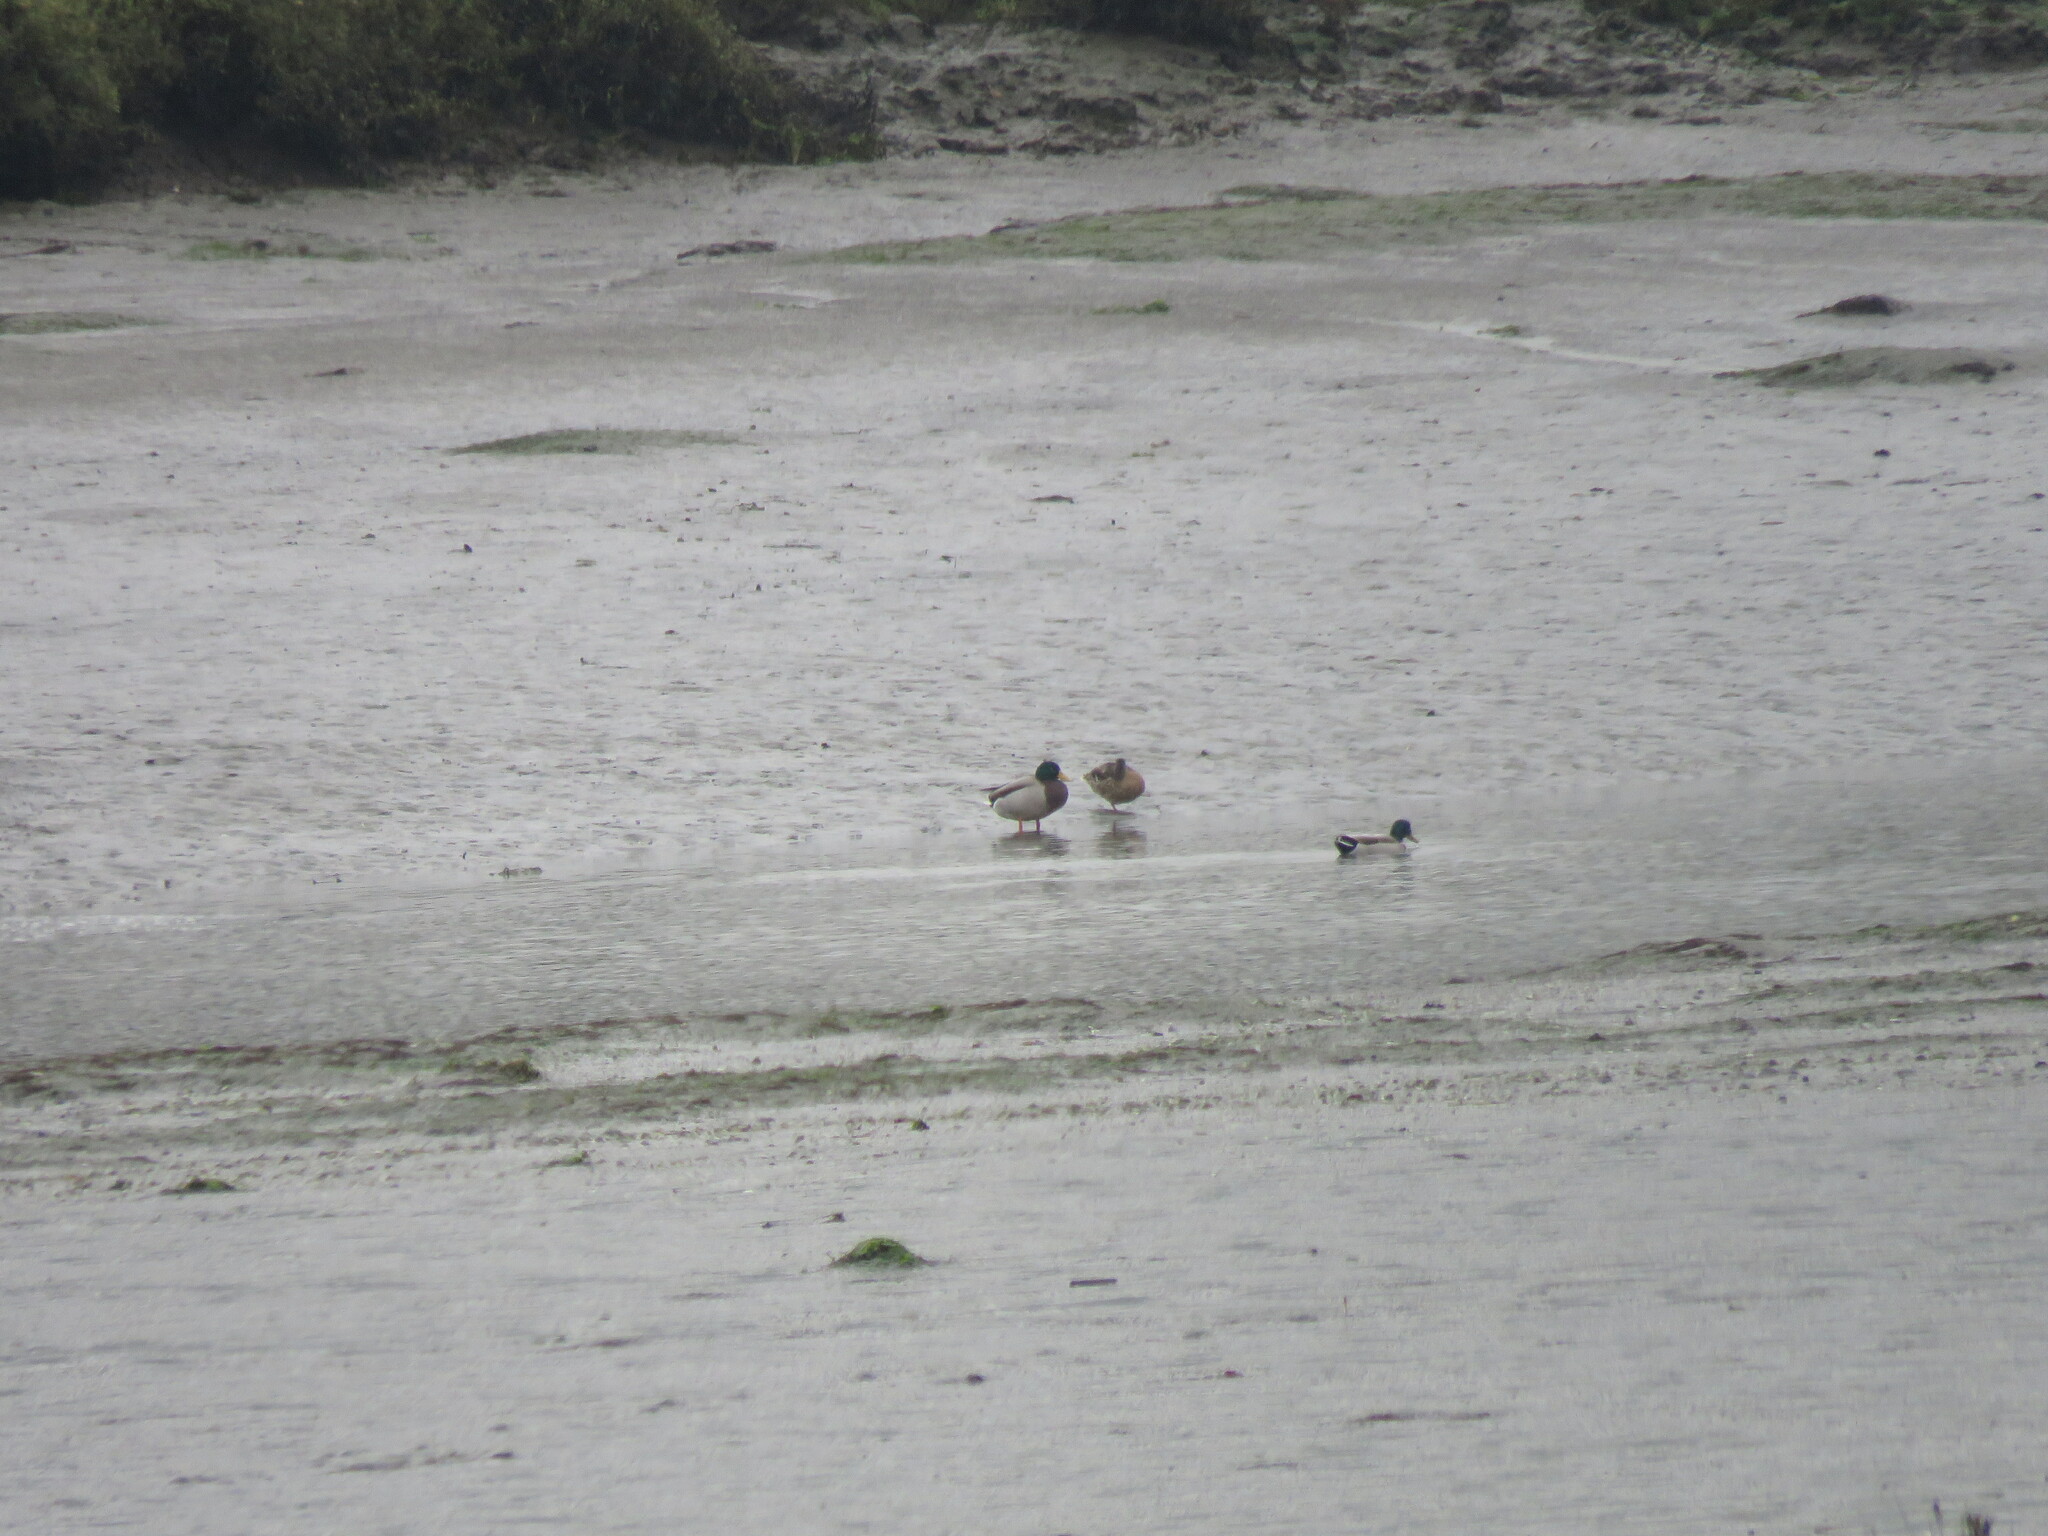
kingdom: Animalia
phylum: Chordata
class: Aves
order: Anseriformes
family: Anatidae
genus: Anas
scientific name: Anas platyrhynchos
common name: Mallard
